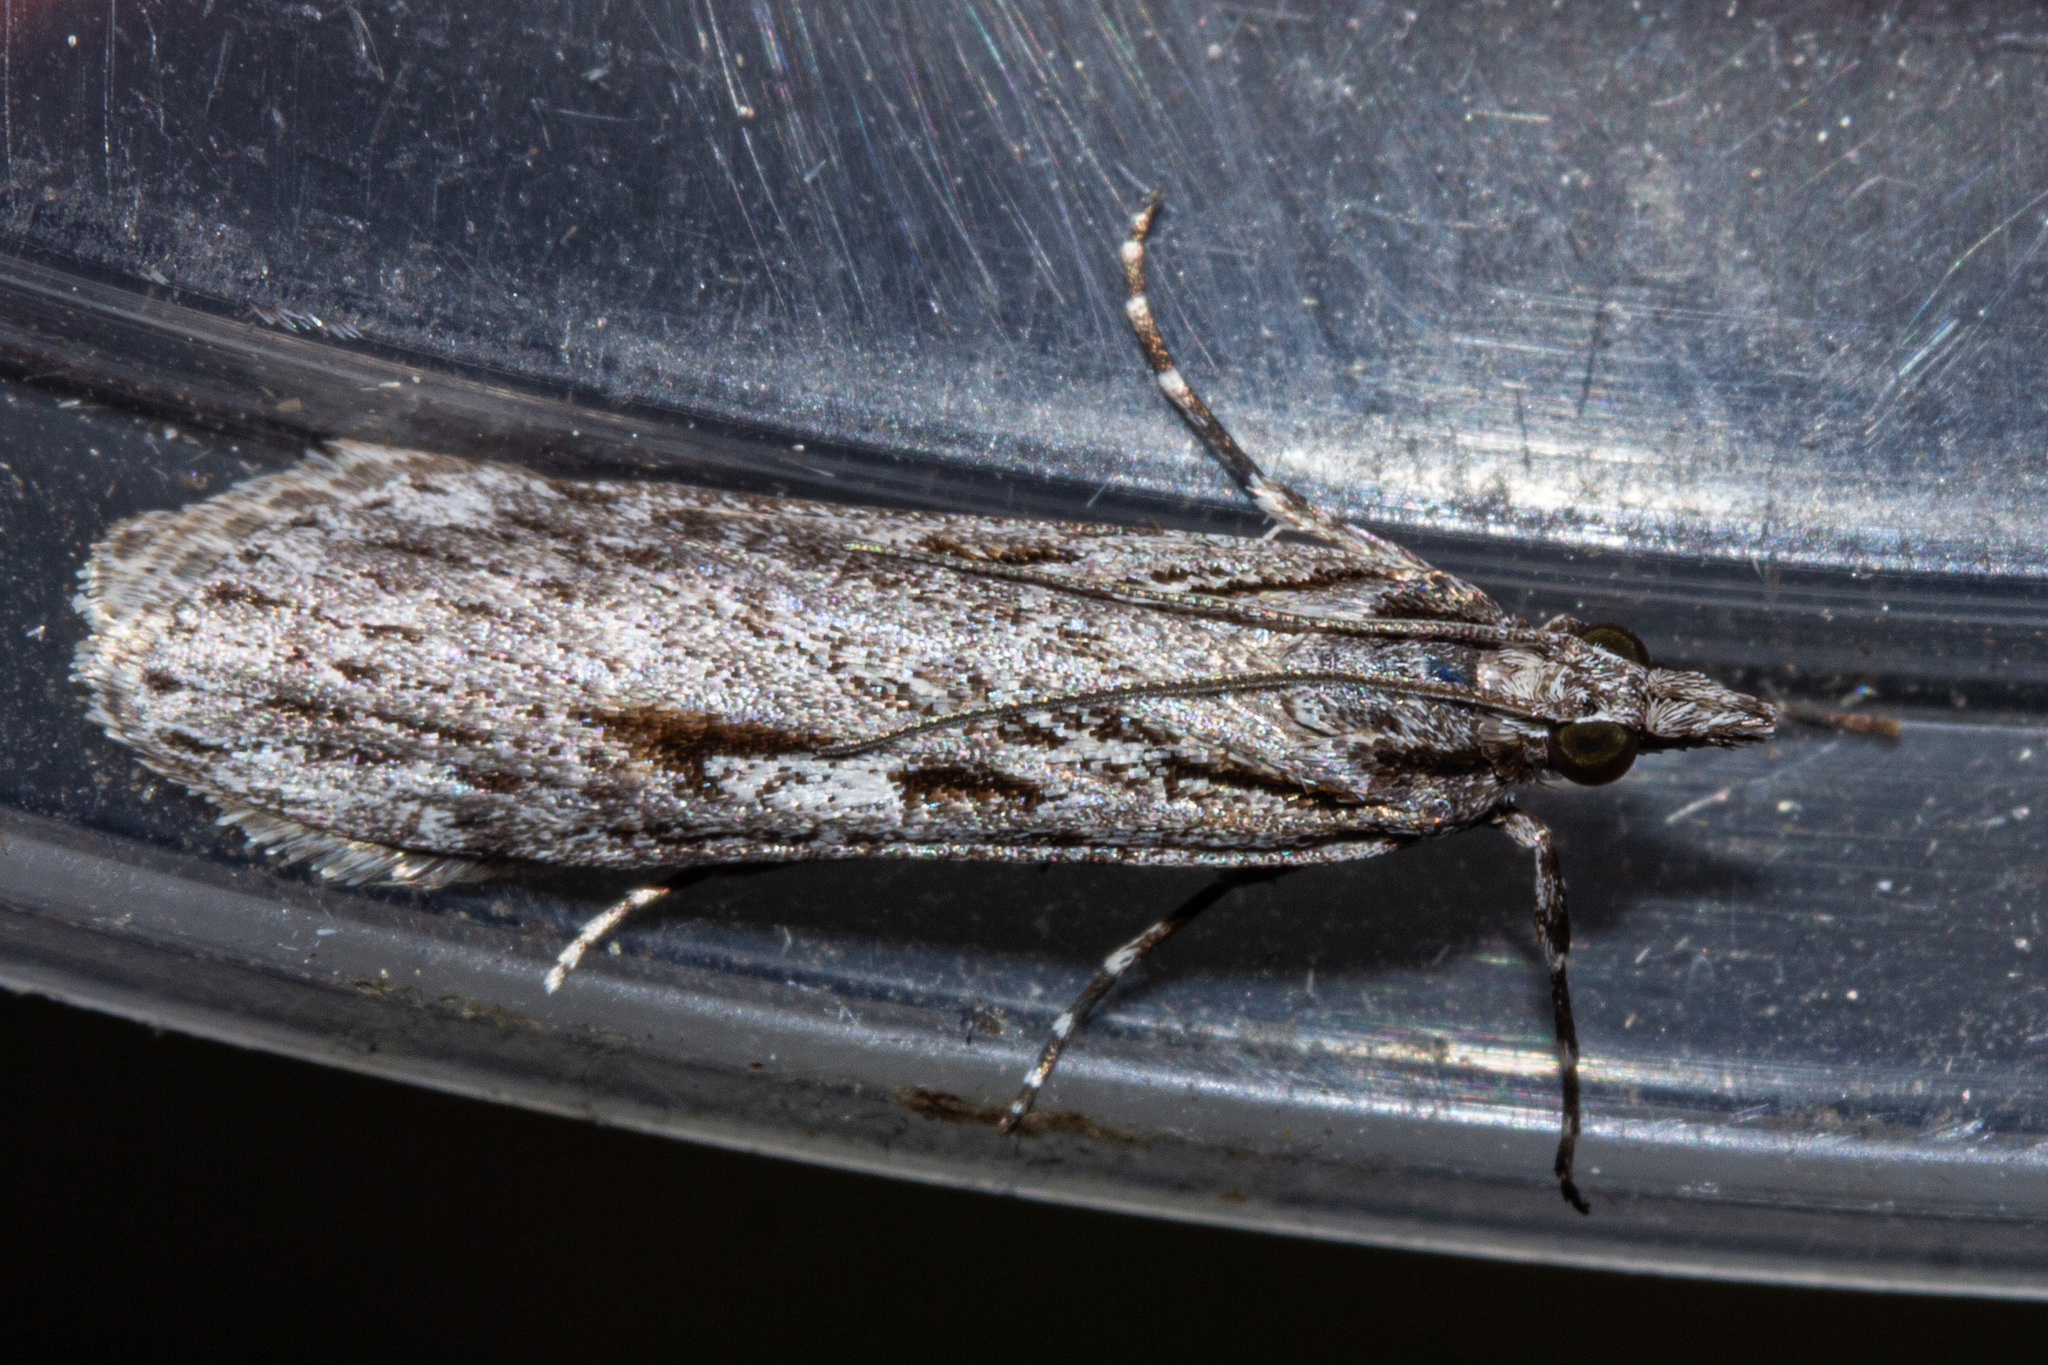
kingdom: Animalia
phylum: Arthropoda
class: Insecta
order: Lepidoptera
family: Crambidae
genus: Scoparia
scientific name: Scoparia indistinctalis
